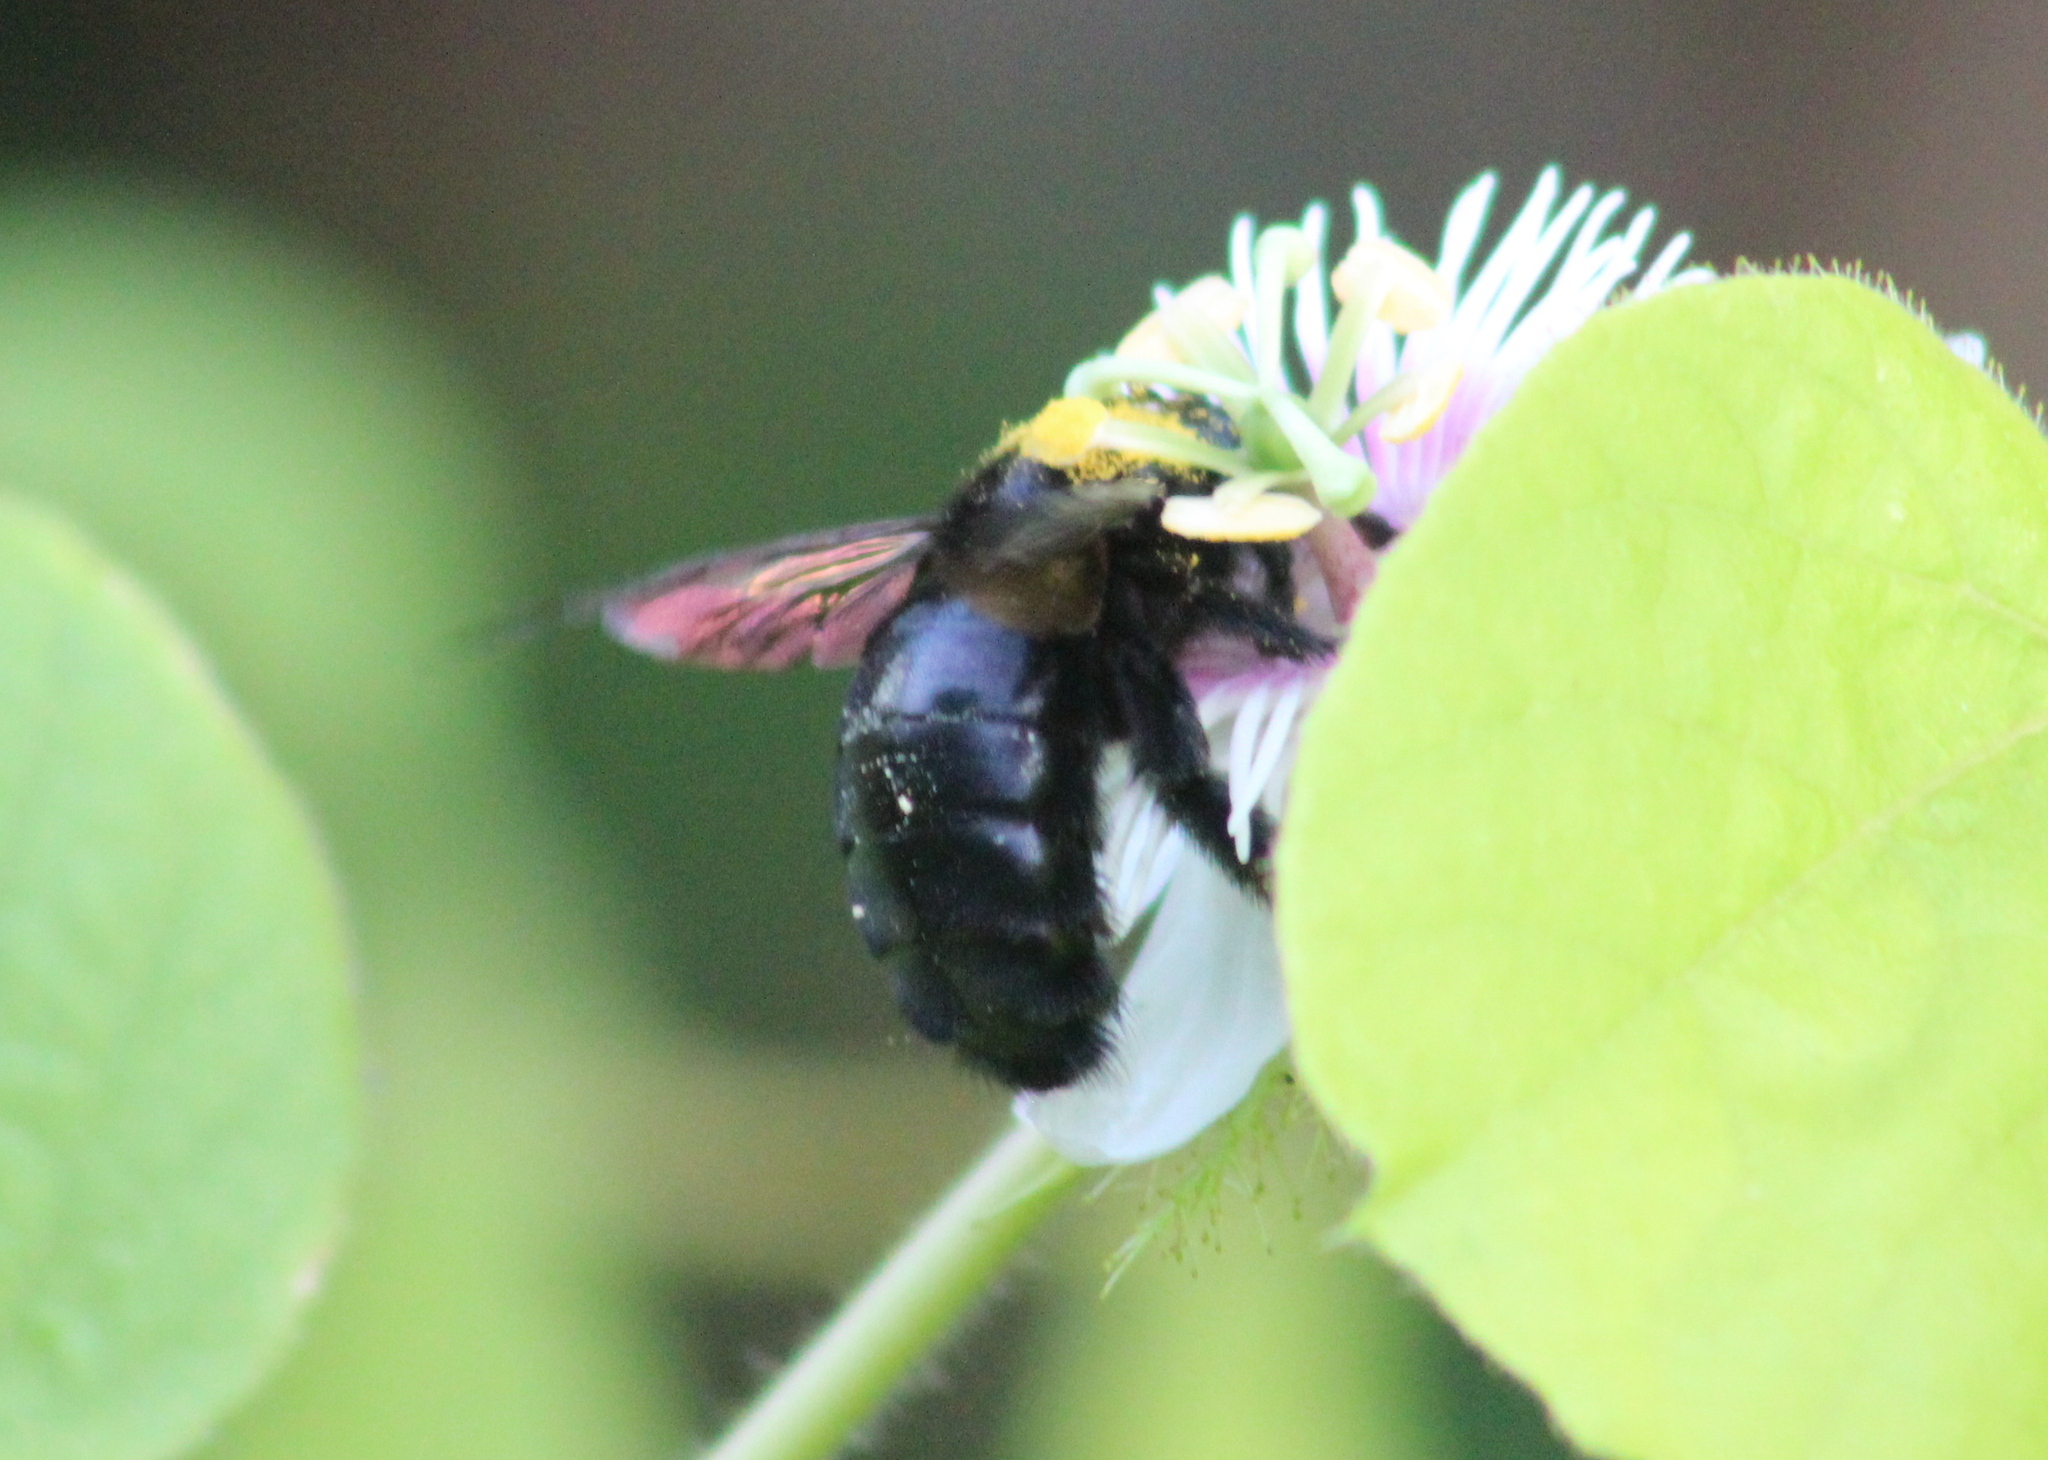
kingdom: Animalia
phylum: Arthropoda
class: Insecta
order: Hymenoptera
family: Apidae
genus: Xylocopa
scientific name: Xylocopa sonorina
